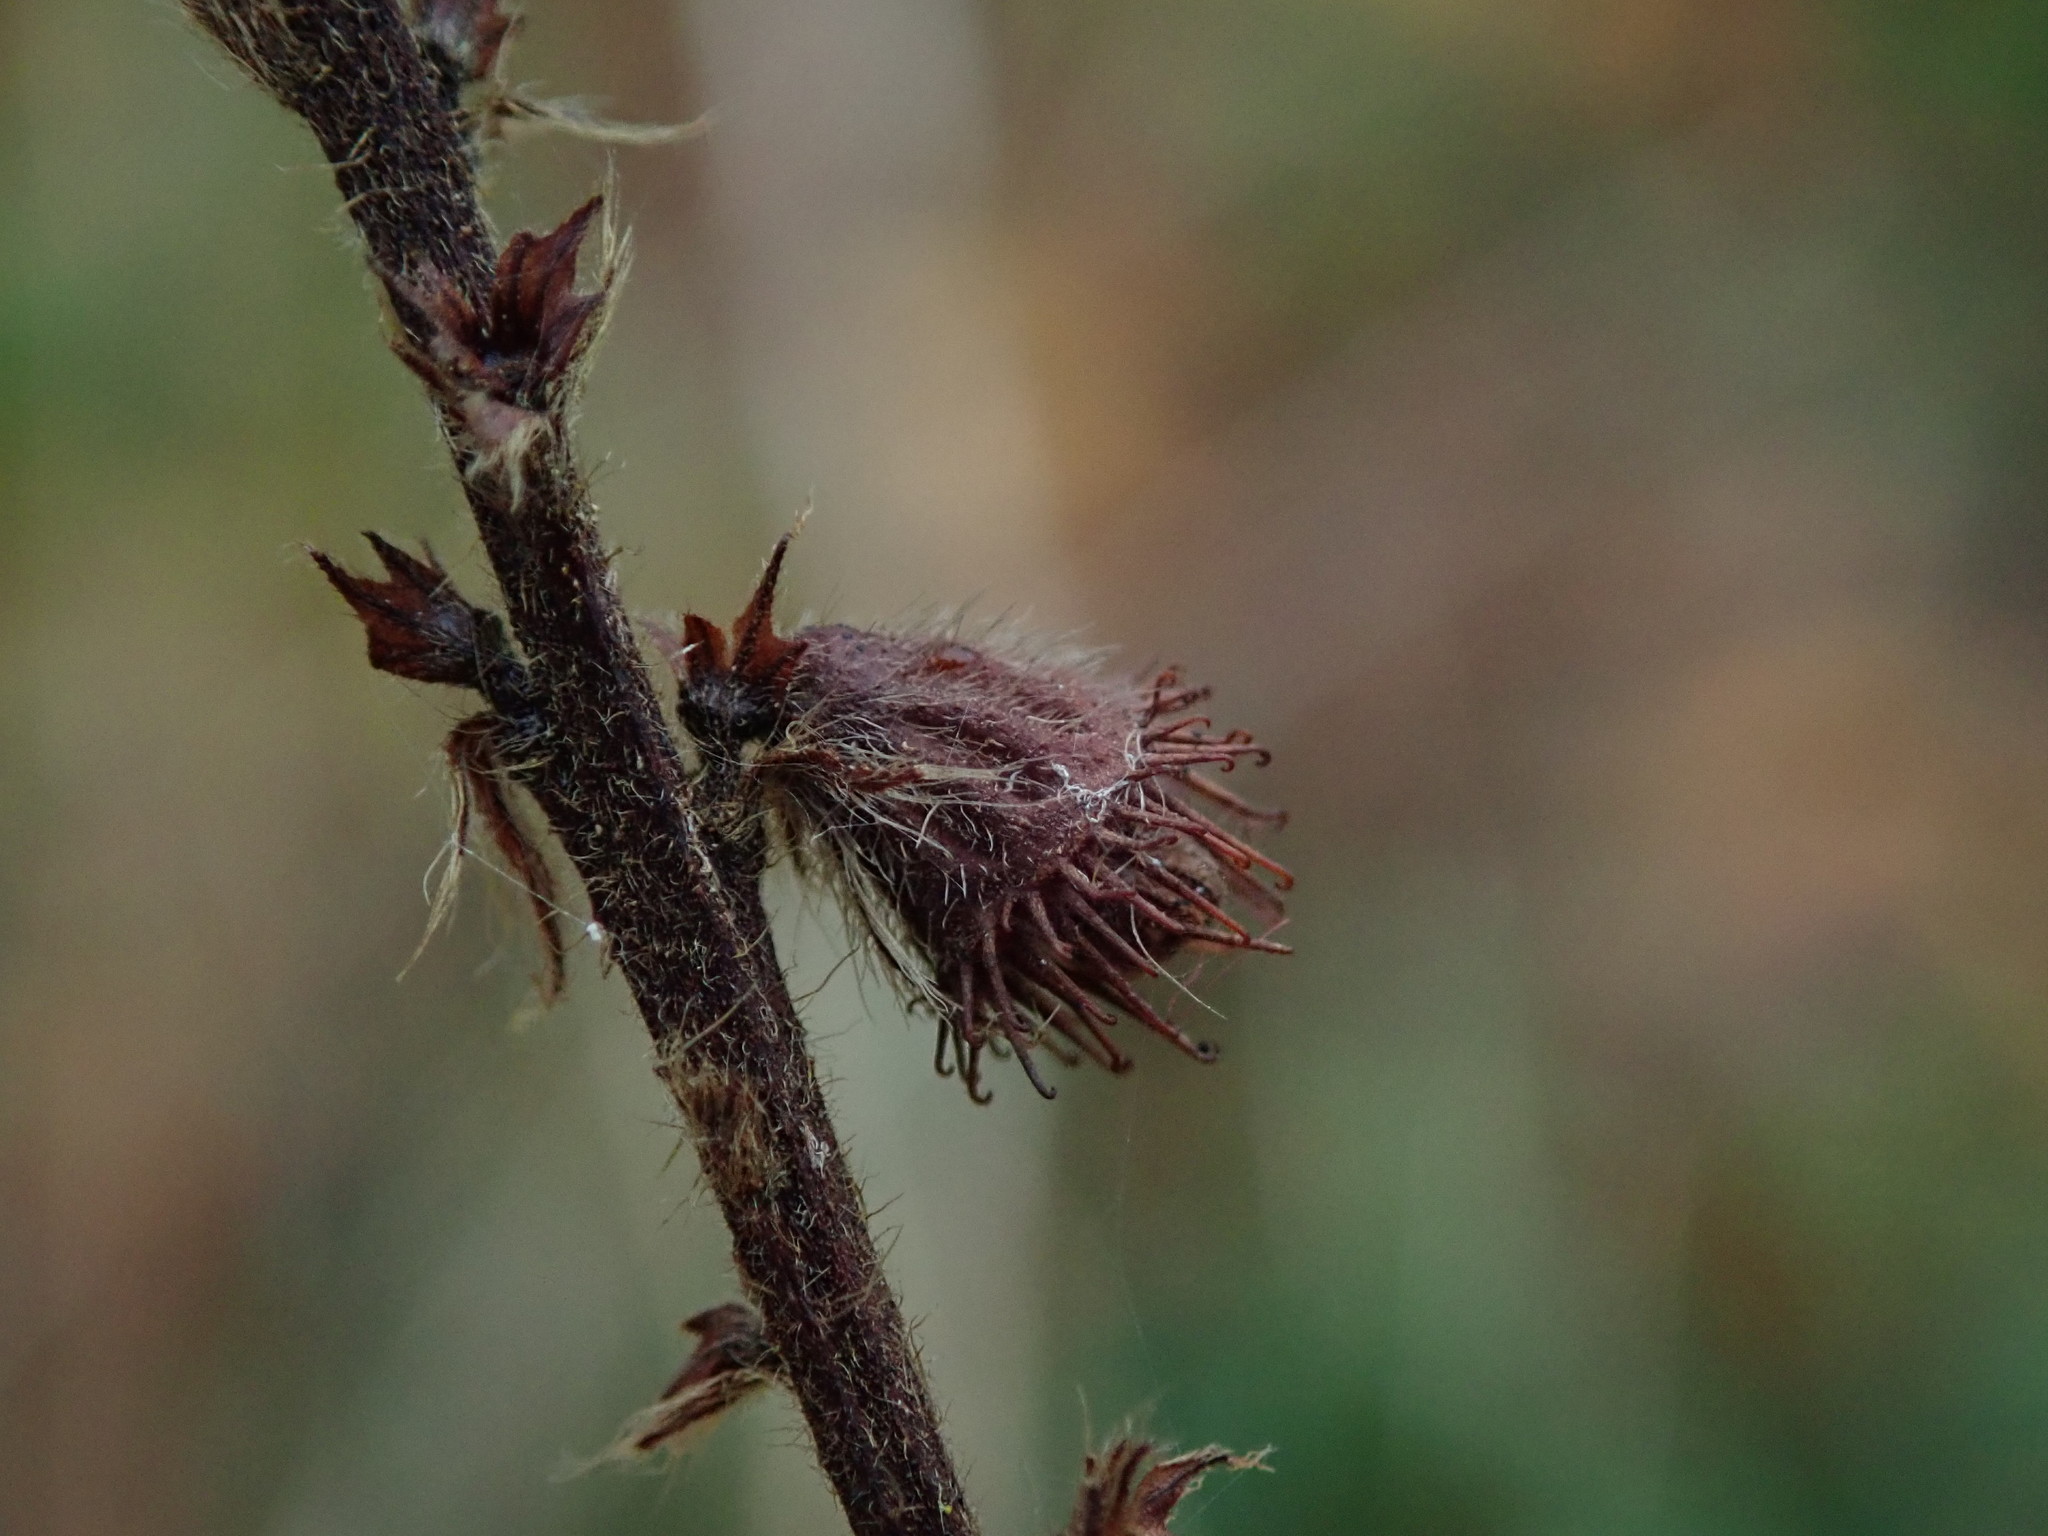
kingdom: Plantae
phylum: Tracheophyta
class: Magnoliopsida
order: Rosales
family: Rosaceae
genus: Agrimonia
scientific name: Agrimonia eupatoria
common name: Agrimony
